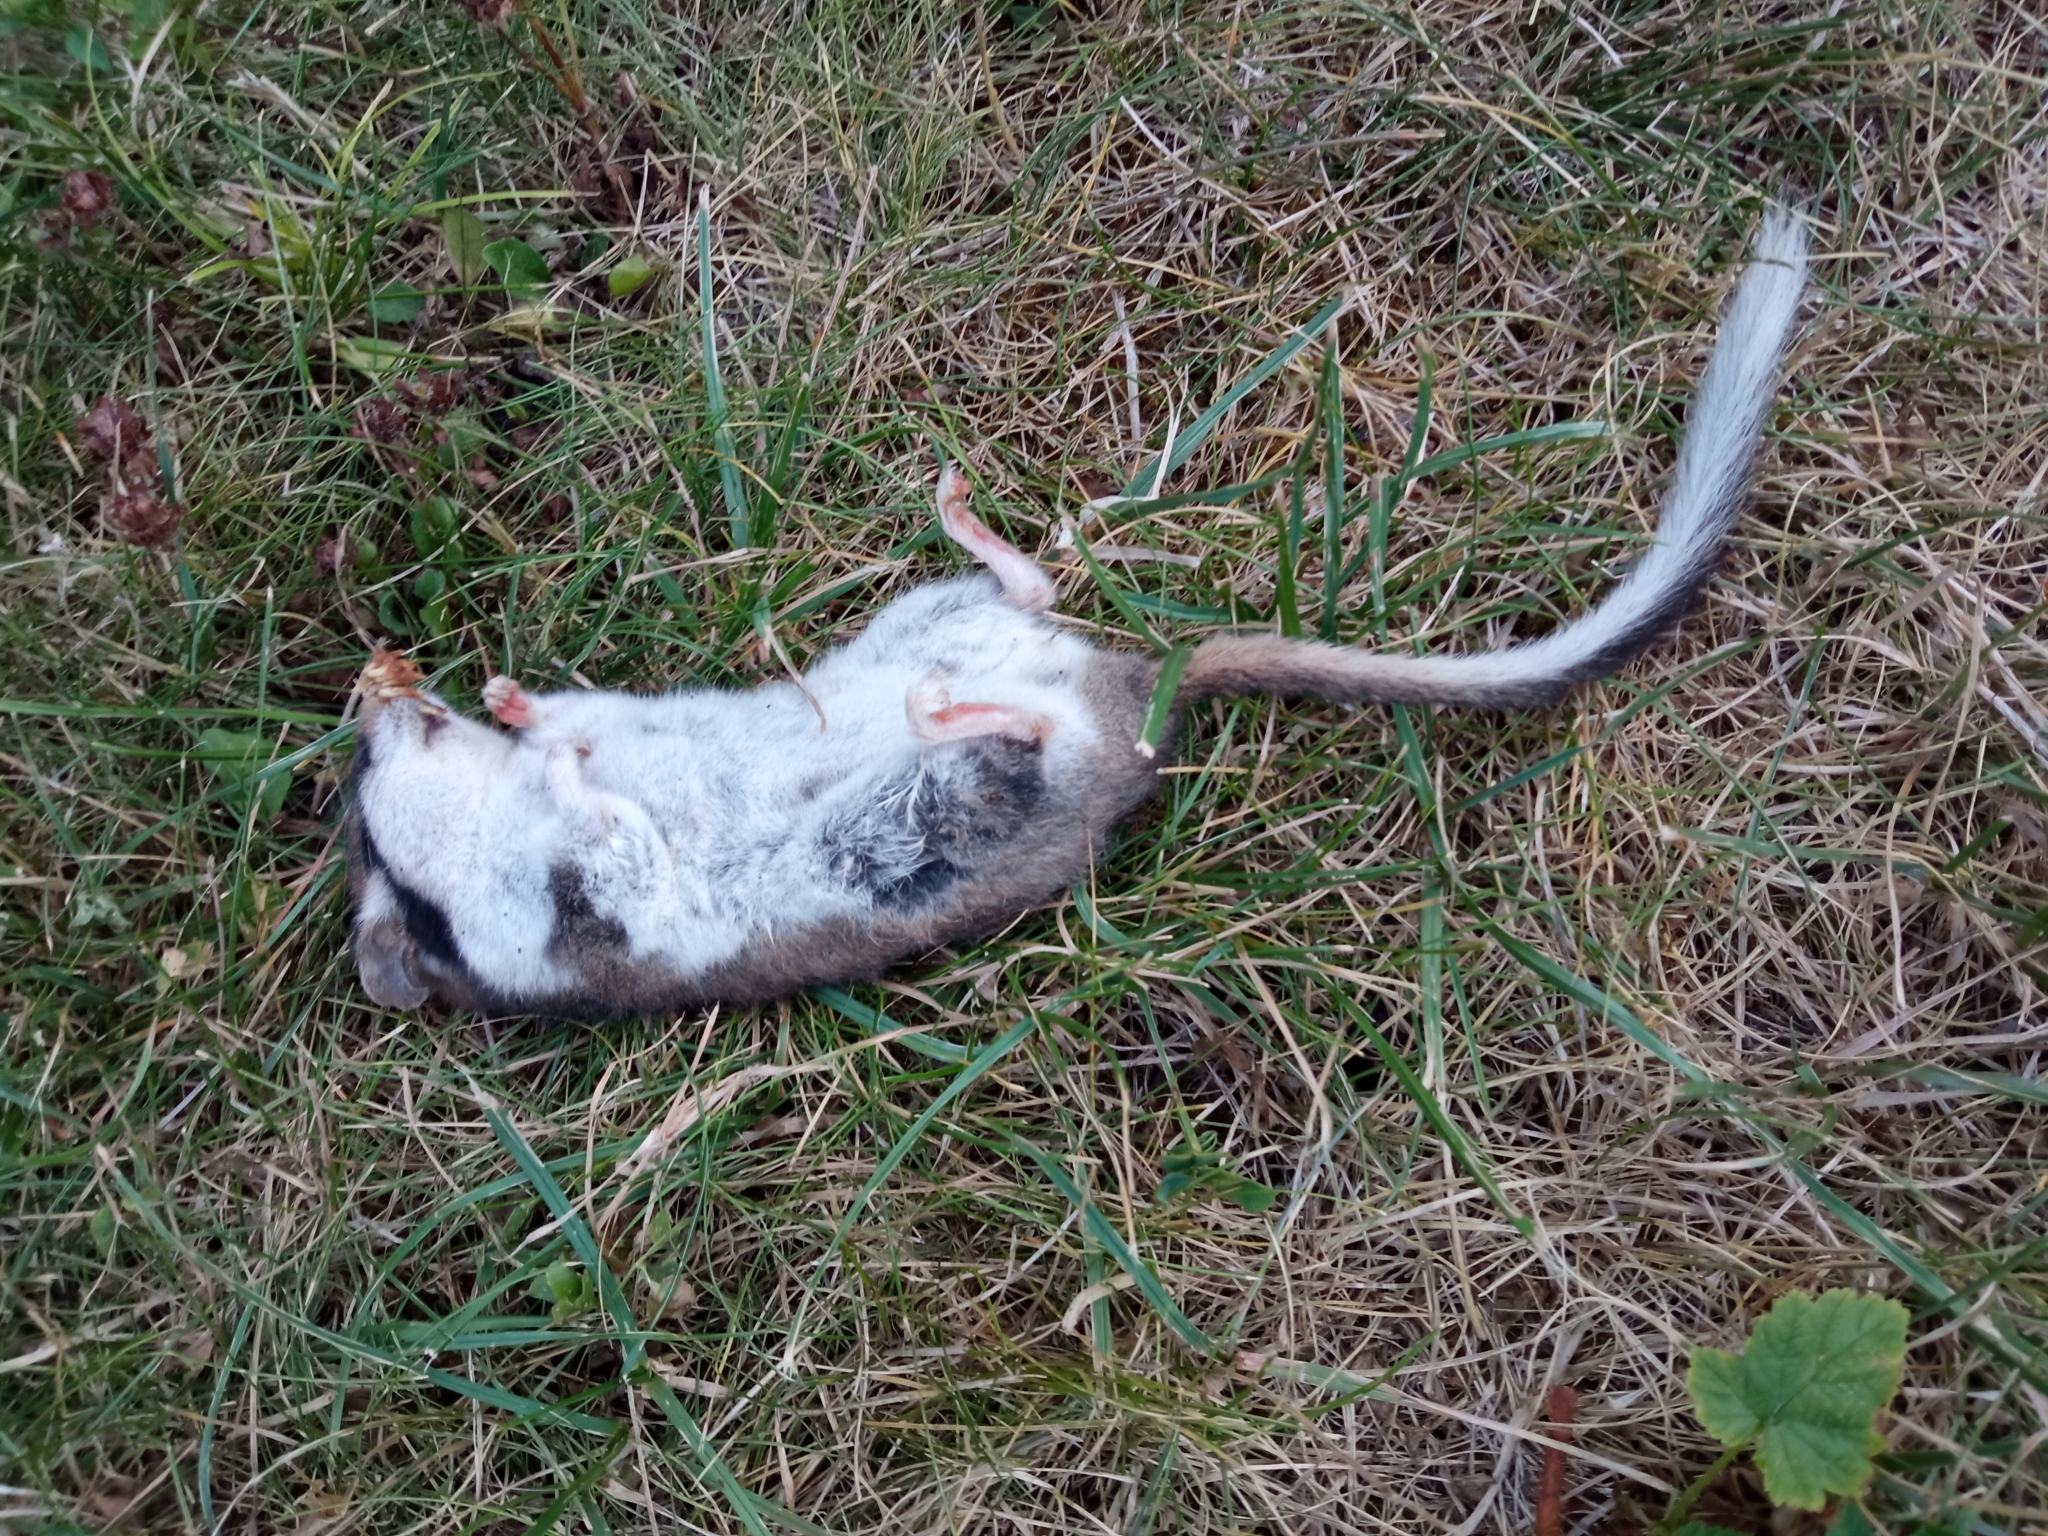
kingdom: Animalia
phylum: Chordata
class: Mammalia
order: Rodentia
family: Gliridae
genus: Eliomys
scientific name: Eliomys quercinus
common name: Garden dormouse
